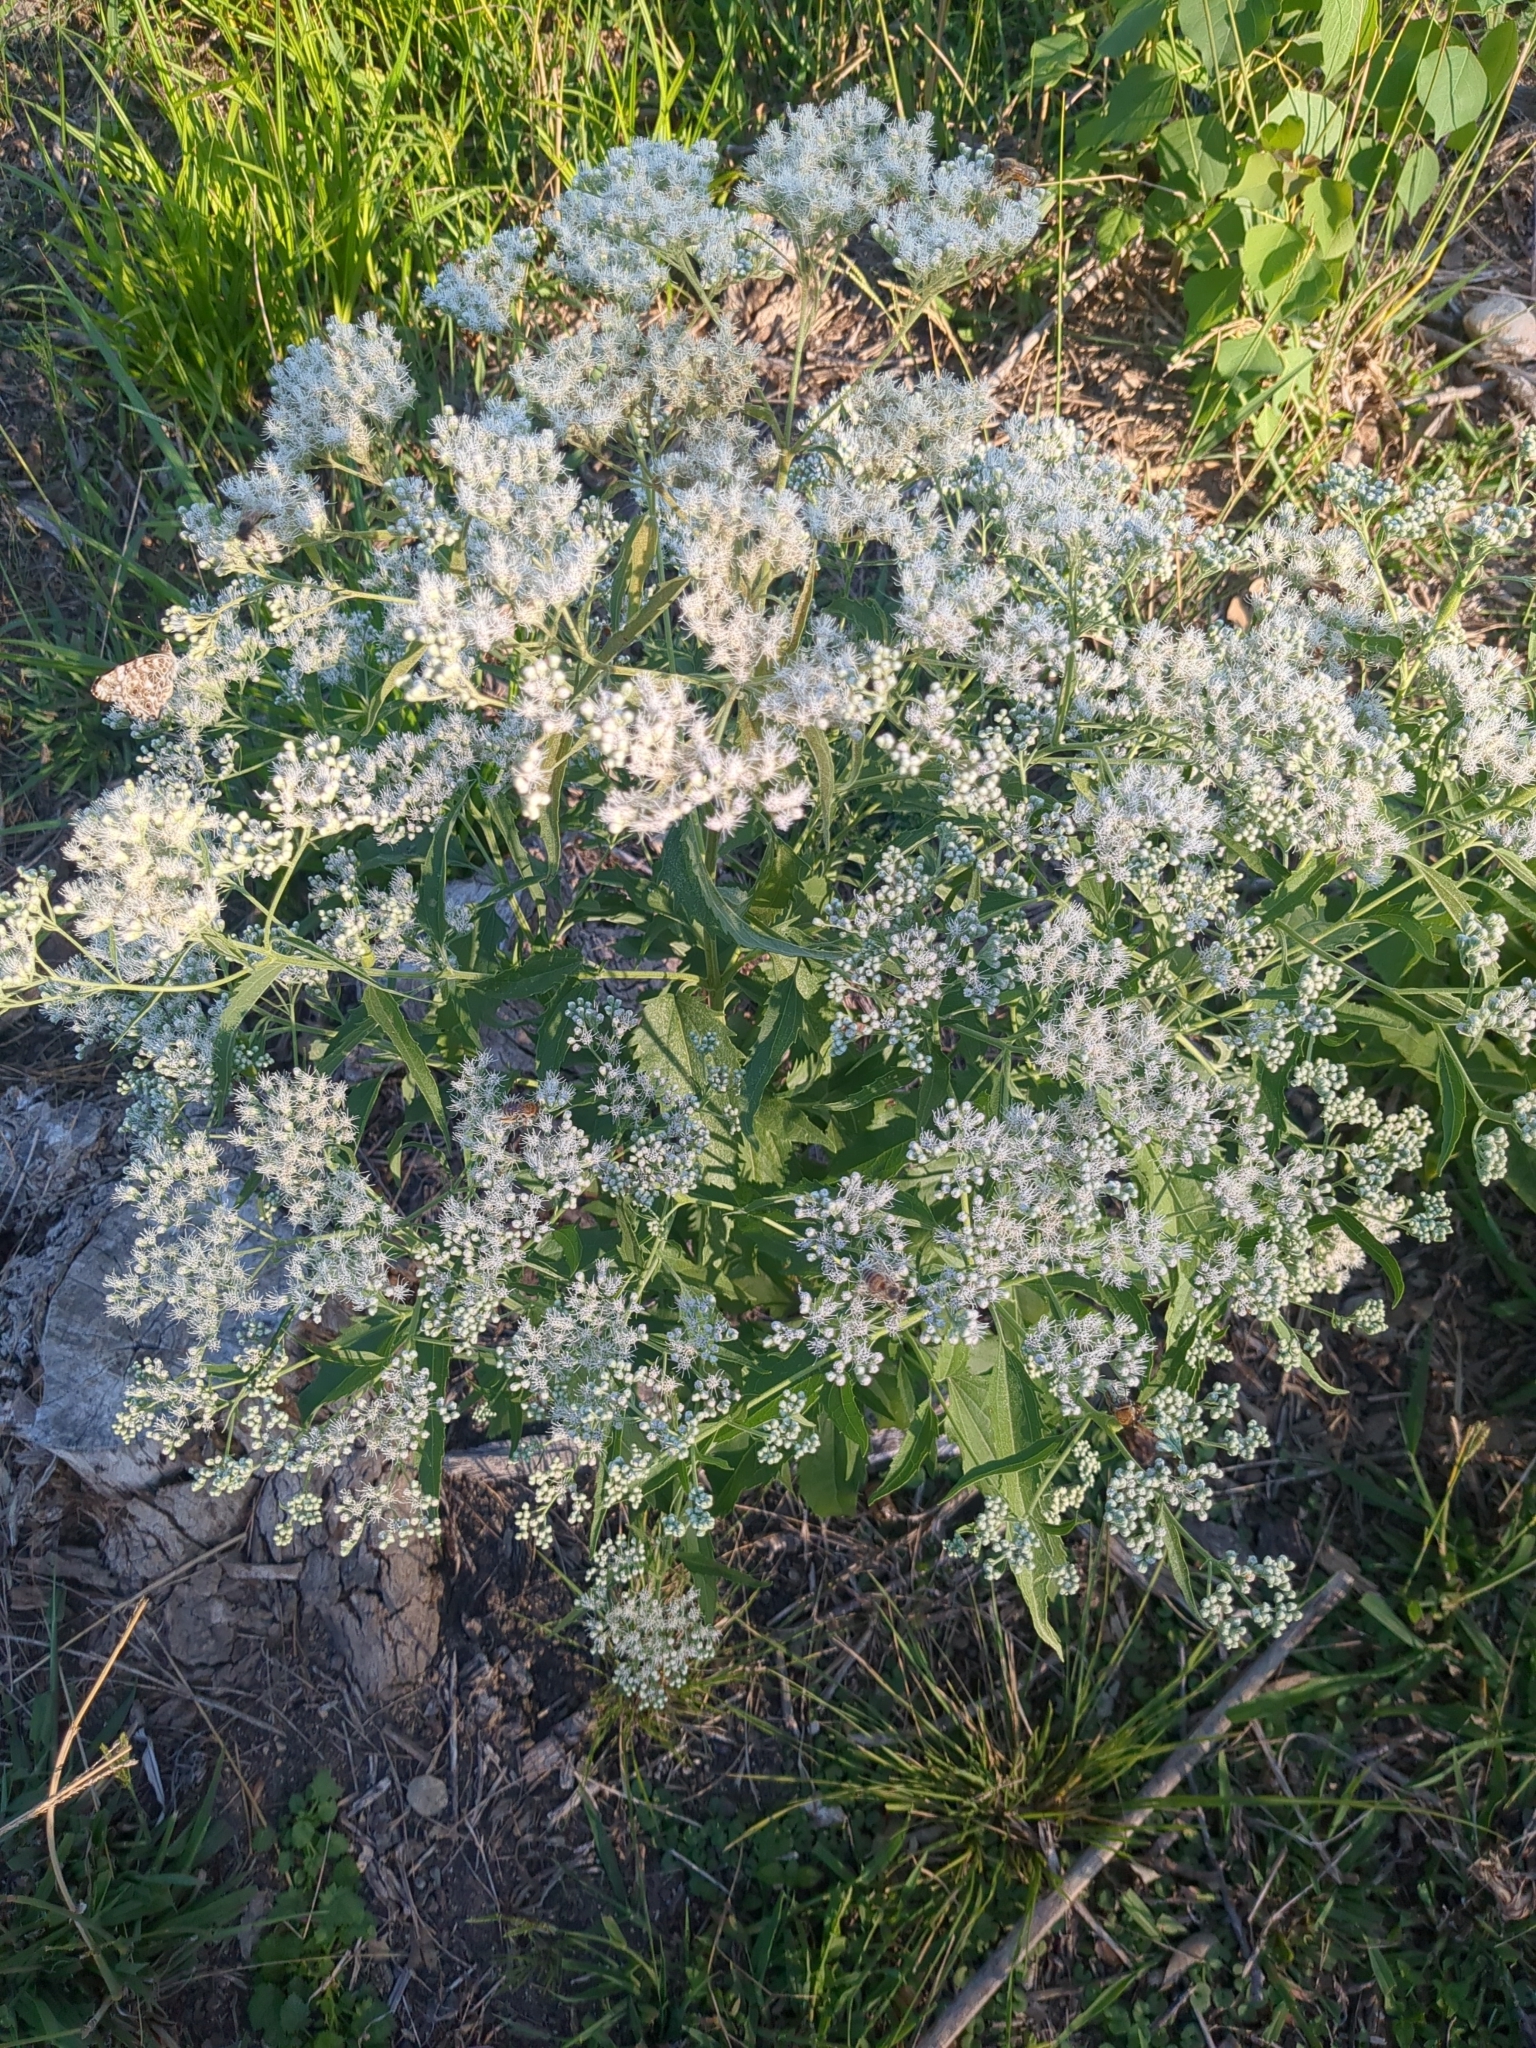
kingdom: Plantae
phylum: Tracheophyta
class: Magnoliopsida
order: Asterales
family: Asteraceae
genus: Eupatorium
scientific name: Eupatorium serotinum
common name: Late boneset
